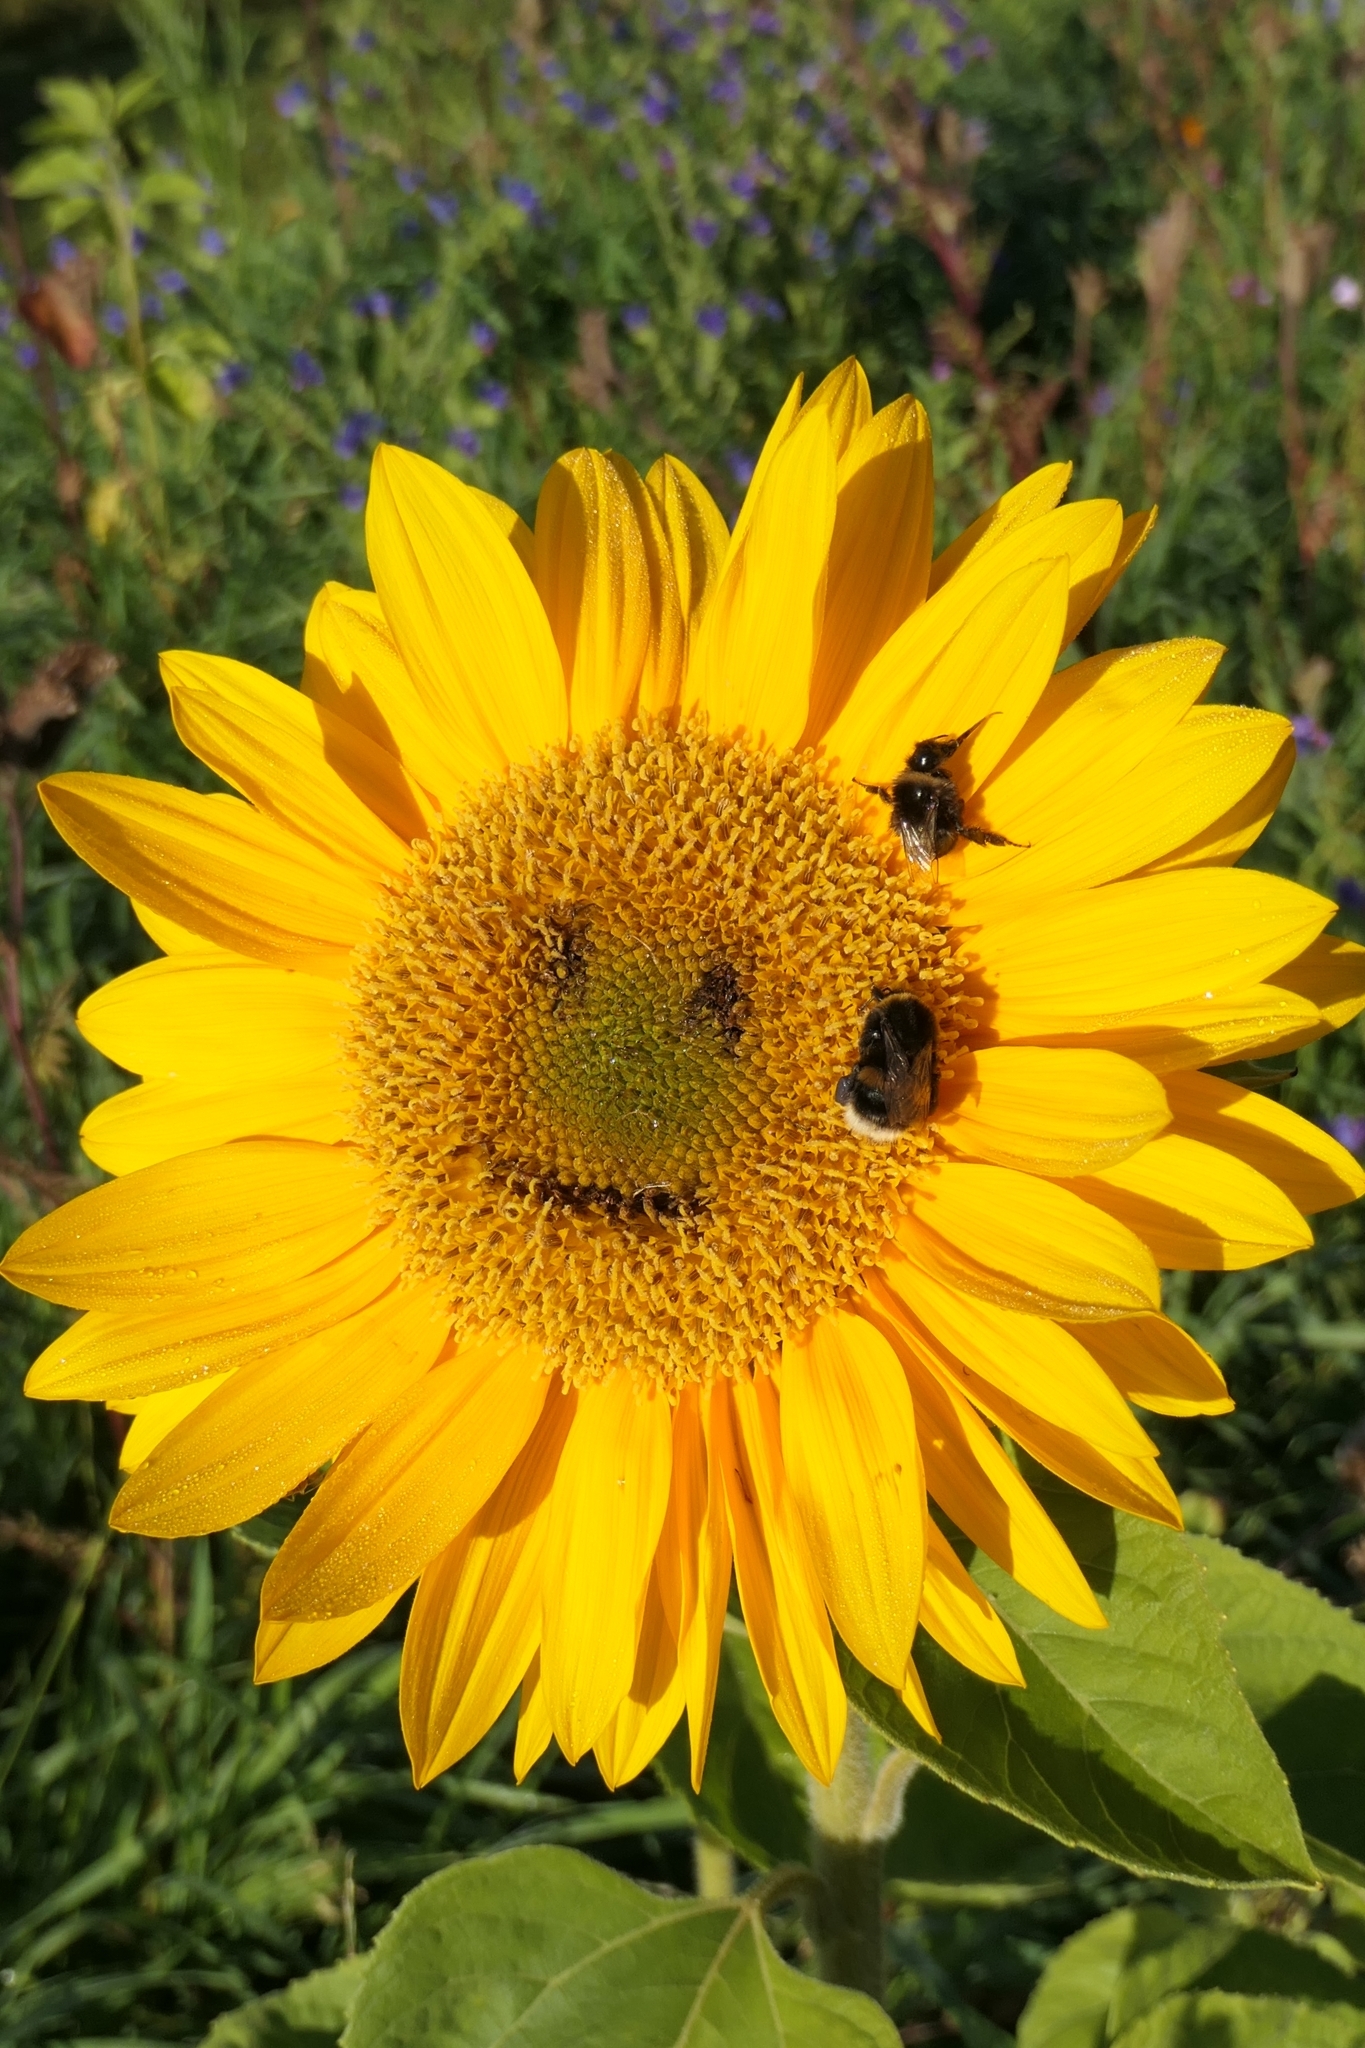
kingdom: Animalia
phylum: Arthropoda
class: Insecta
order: Hymenoptera
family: Apidae
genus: Bombus
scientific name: Bombus terrestris
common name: Buff-tailed bumblebee
